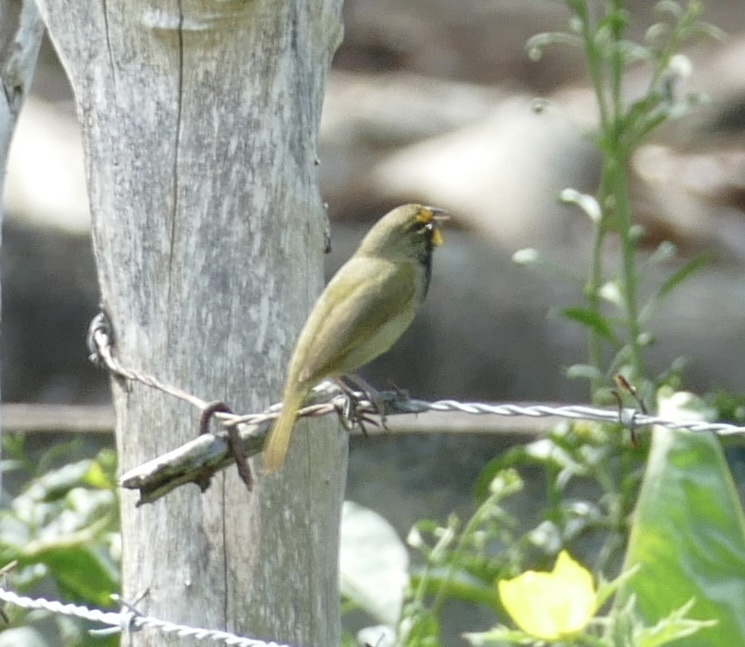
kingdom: Animalia
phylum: Chordata
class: Aves
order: Passeriformes
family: Thraupidae
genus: Tiaris
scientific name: Tiaris olivaceus
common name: Yellow-faced grassquit
